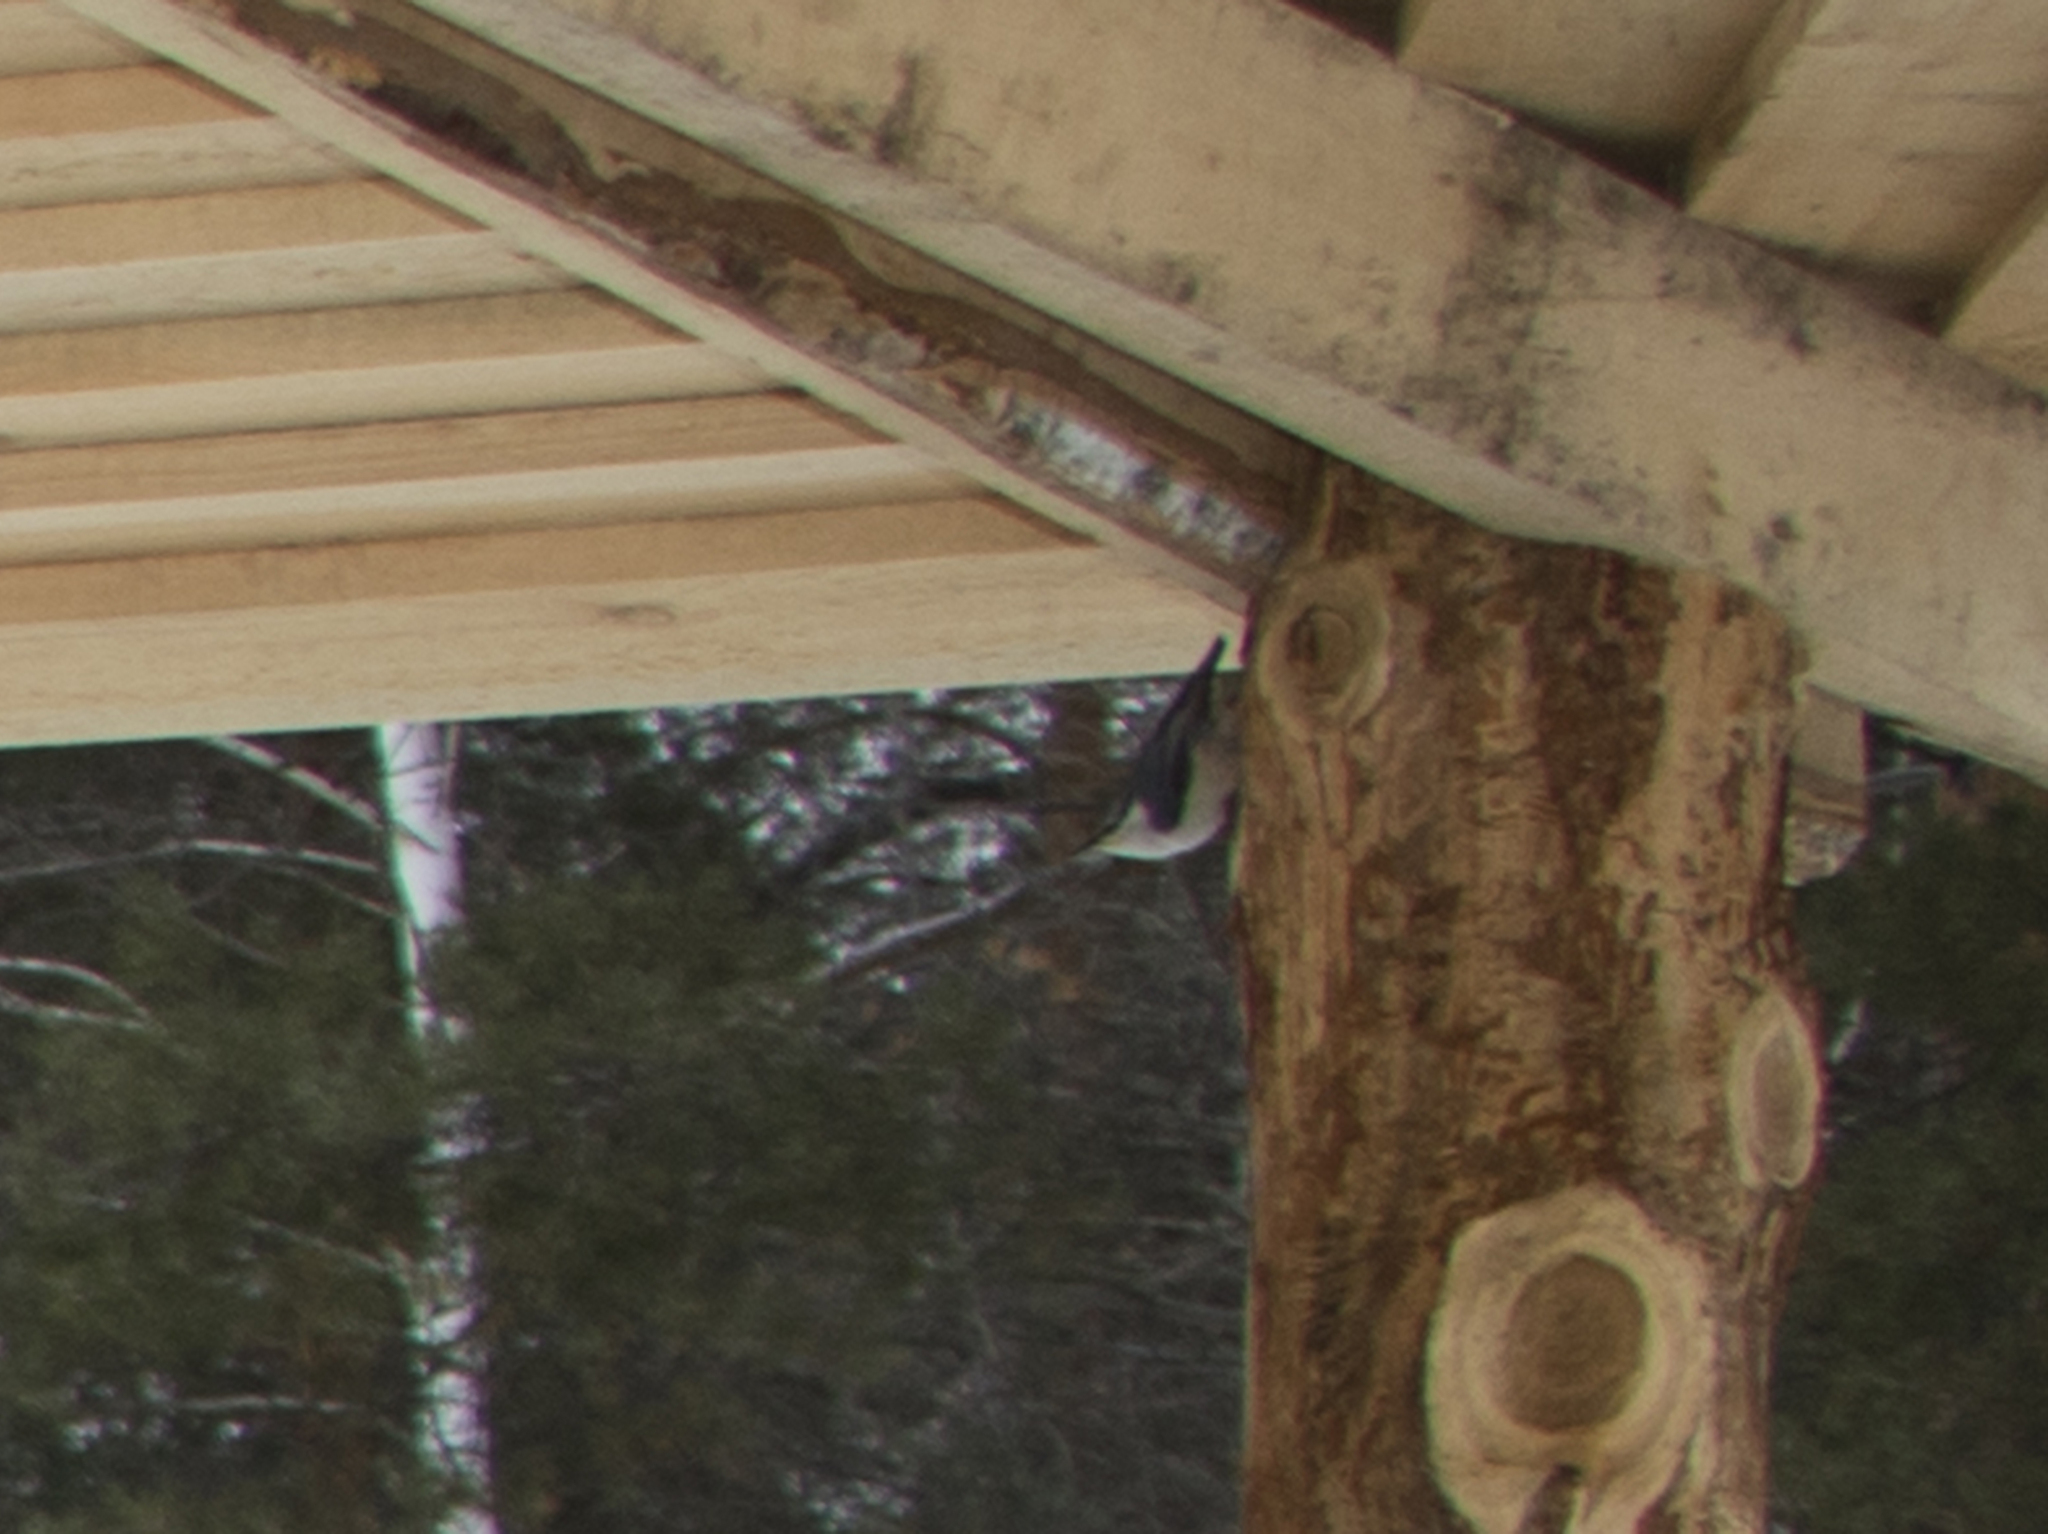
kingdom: Animalia
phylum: Chordata
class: Aves
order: Passeriformes
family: Sittidae
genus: Sitta
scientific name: Sitta europaea
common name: Eurasian nuthatch
